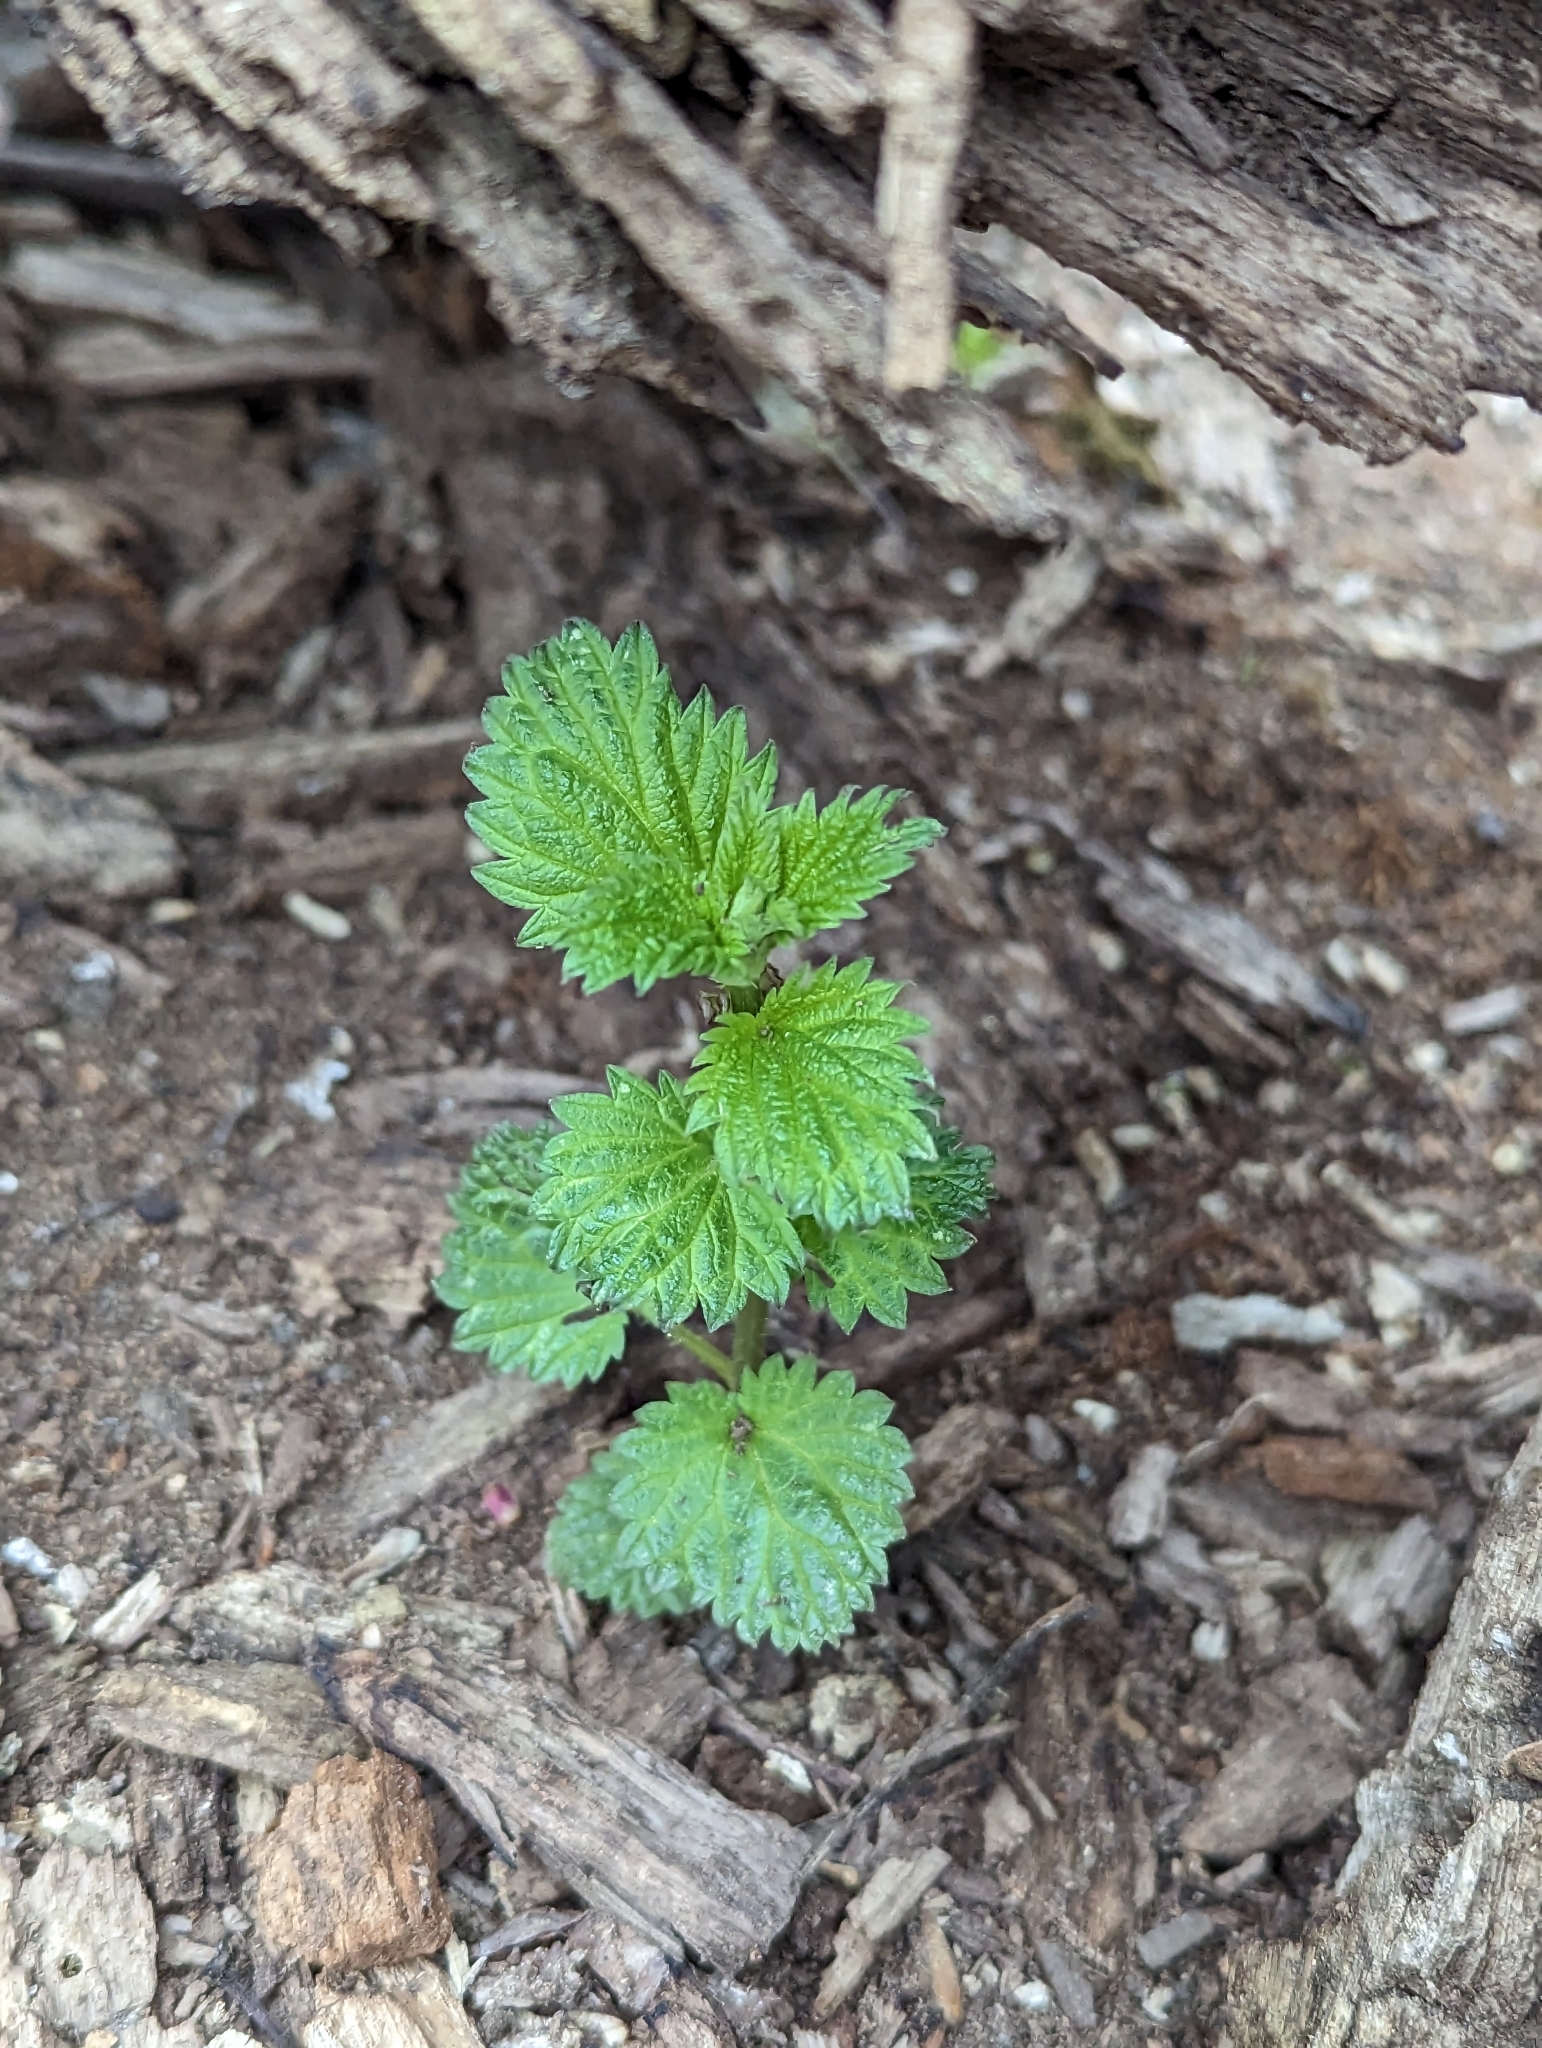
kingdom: Plantae
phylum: Tracheophyta
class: Magnoliopsida
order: Rosales
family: Urticaceae
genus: Urtica
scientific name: Urtica dioica
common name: Common nettle
